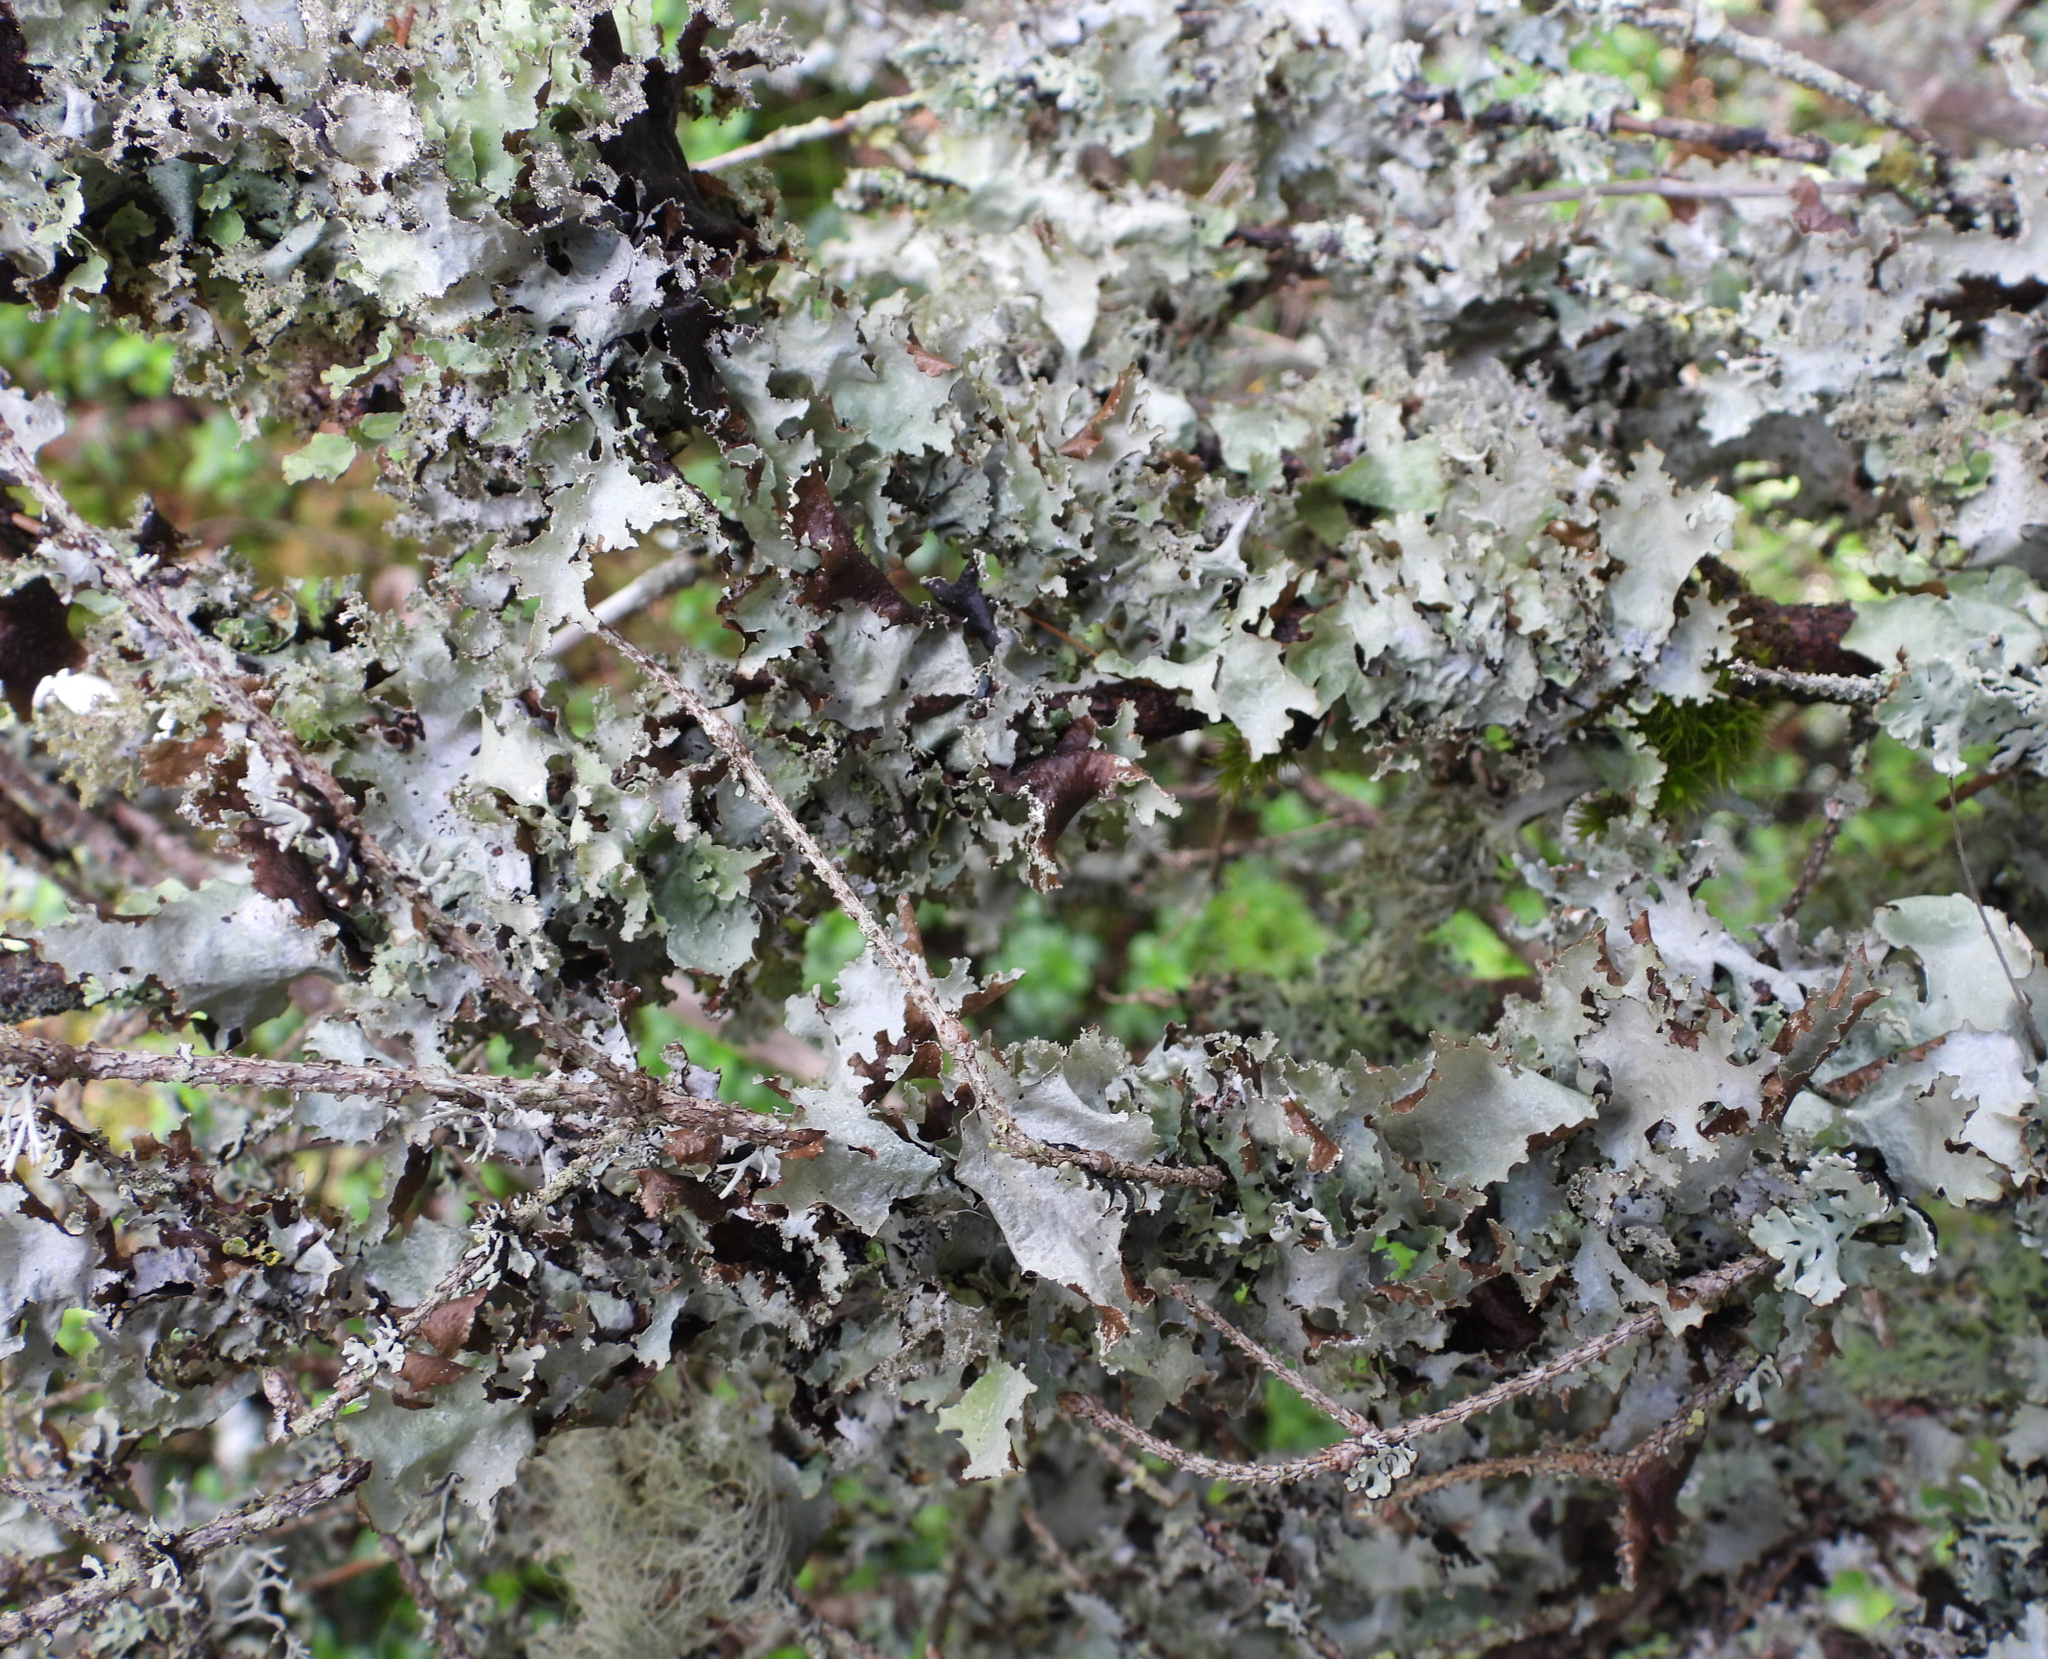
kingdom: Fungi
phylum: Ascomycota
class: Lecanoromycetes
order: Lecanorales
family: Parmeliaceae
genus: Platismatia
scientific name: Platismatia glauca
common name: Varied rag lichen
